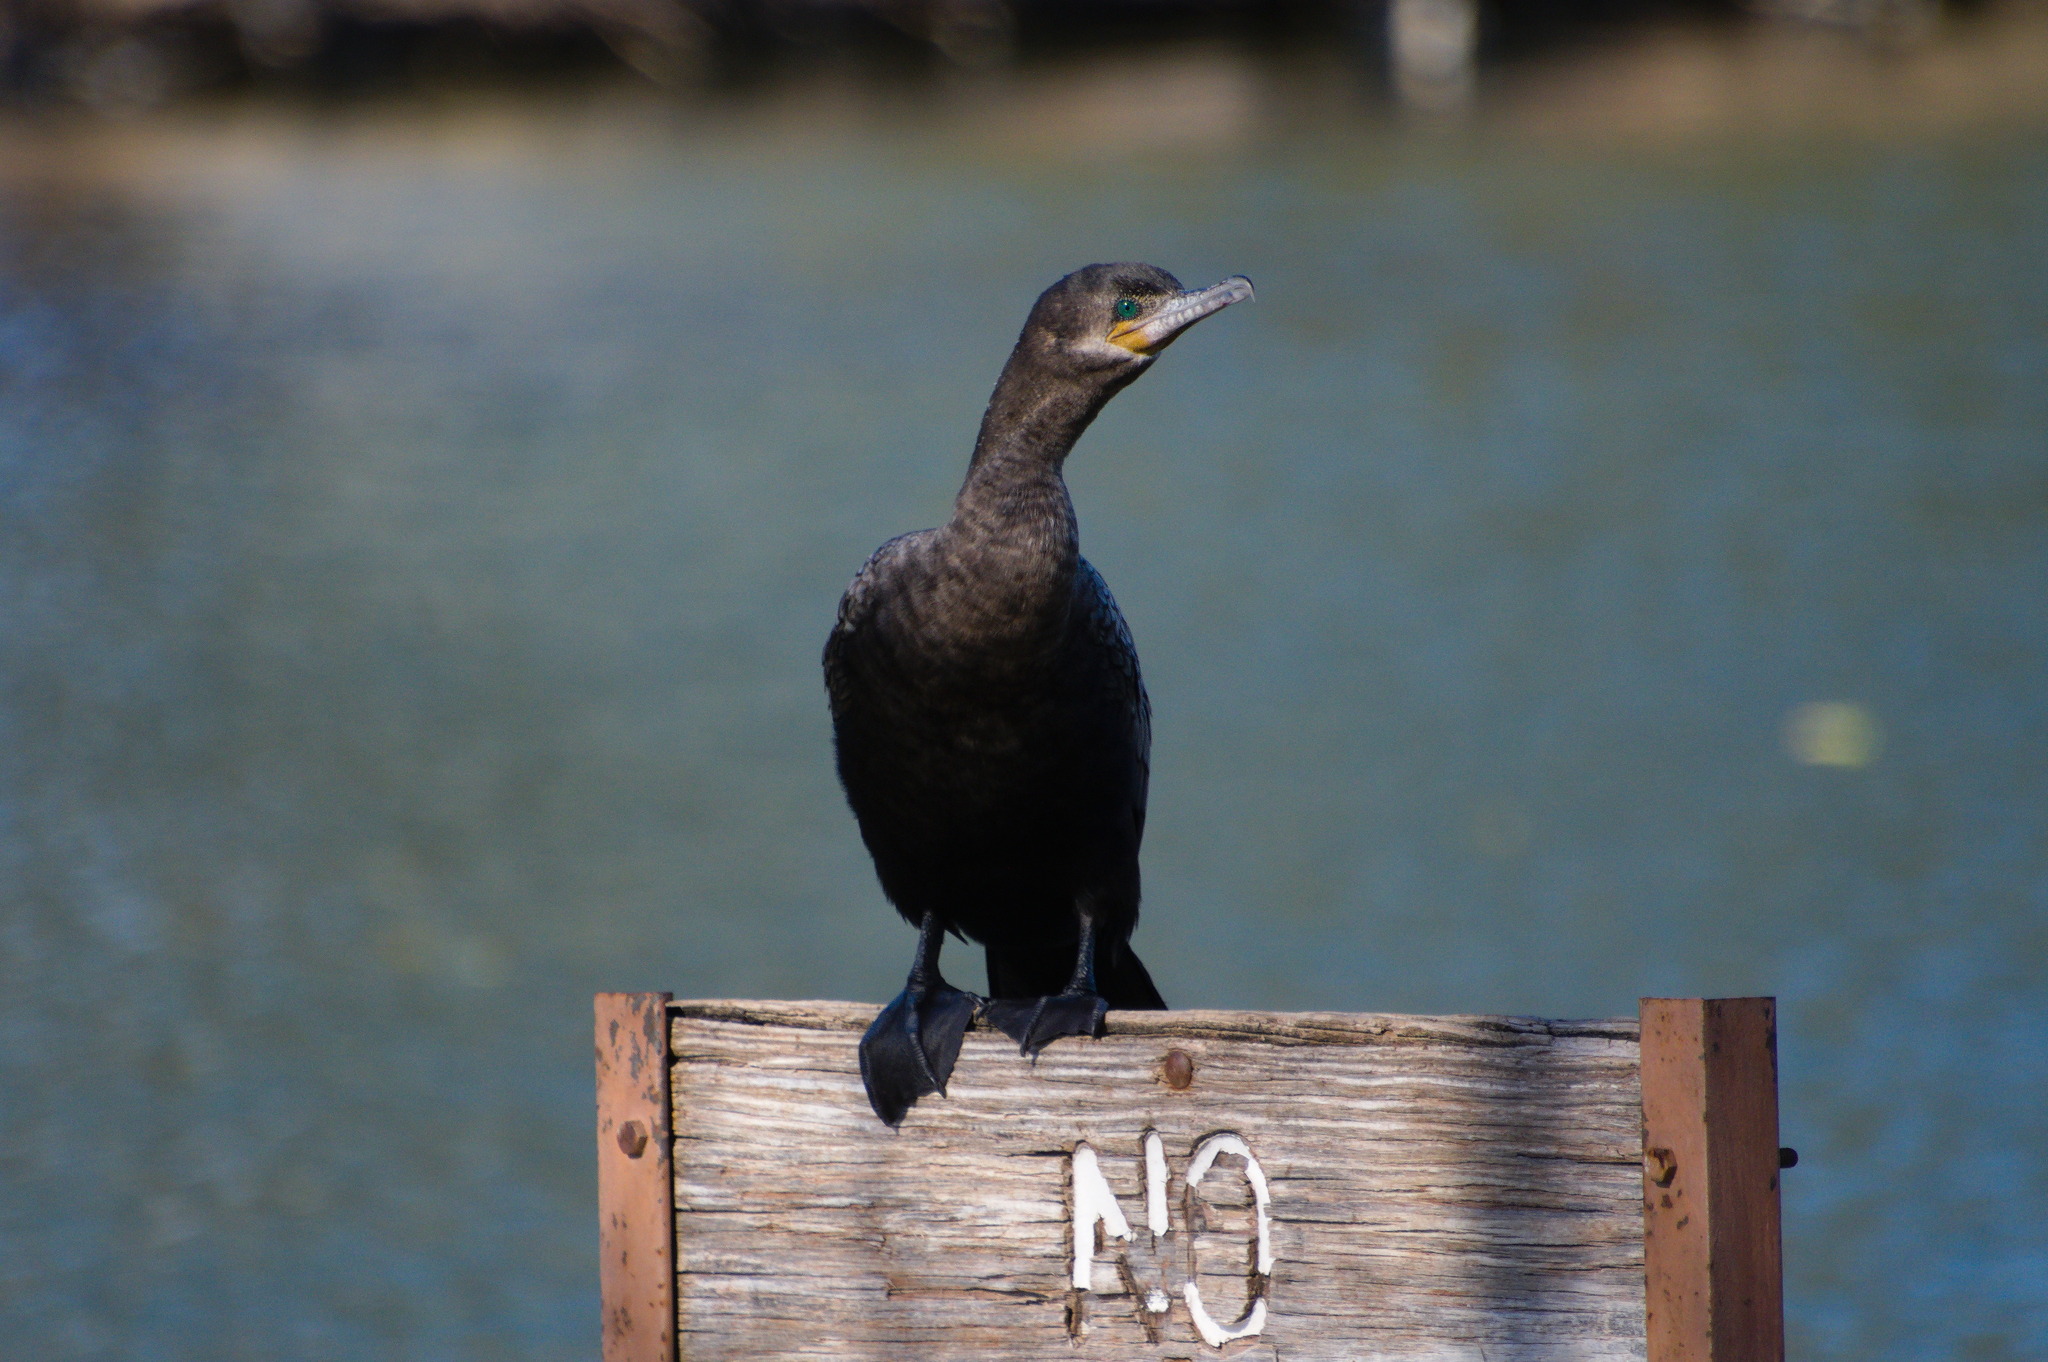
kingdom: Animalia
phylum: Chordata
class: Aves
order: Suliformes
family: Phalacrocoracidae
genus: Phalacrocorax
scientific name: Phalacrocorax brasilianus
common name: Neotropic cormorant
